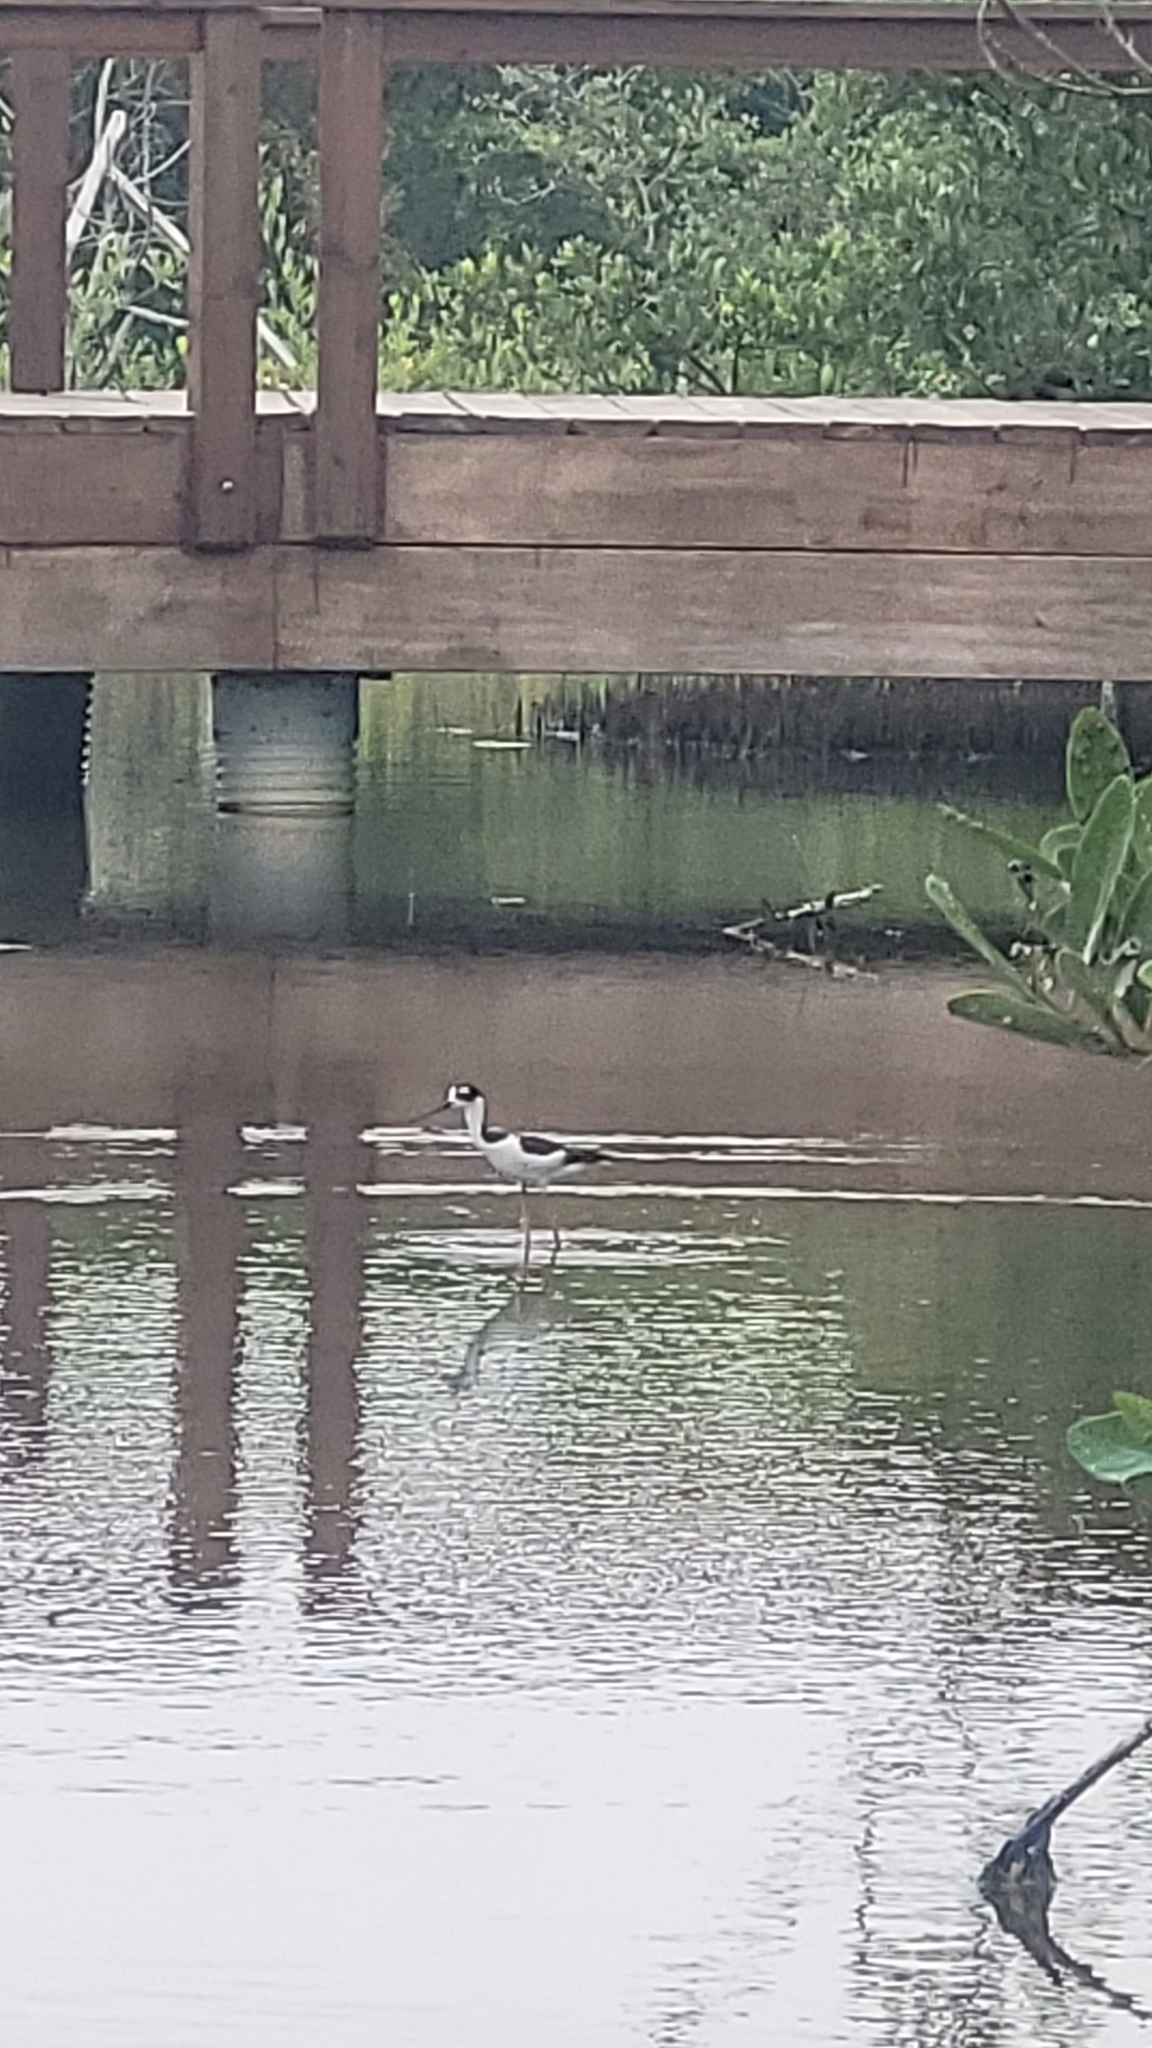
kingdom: Animalia
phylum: Chordata
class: Aves
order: Charadriiformes
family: Recurvirostridae
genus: Himantopus
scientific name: Himantopus mexicanus
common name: Black-necked stilt
